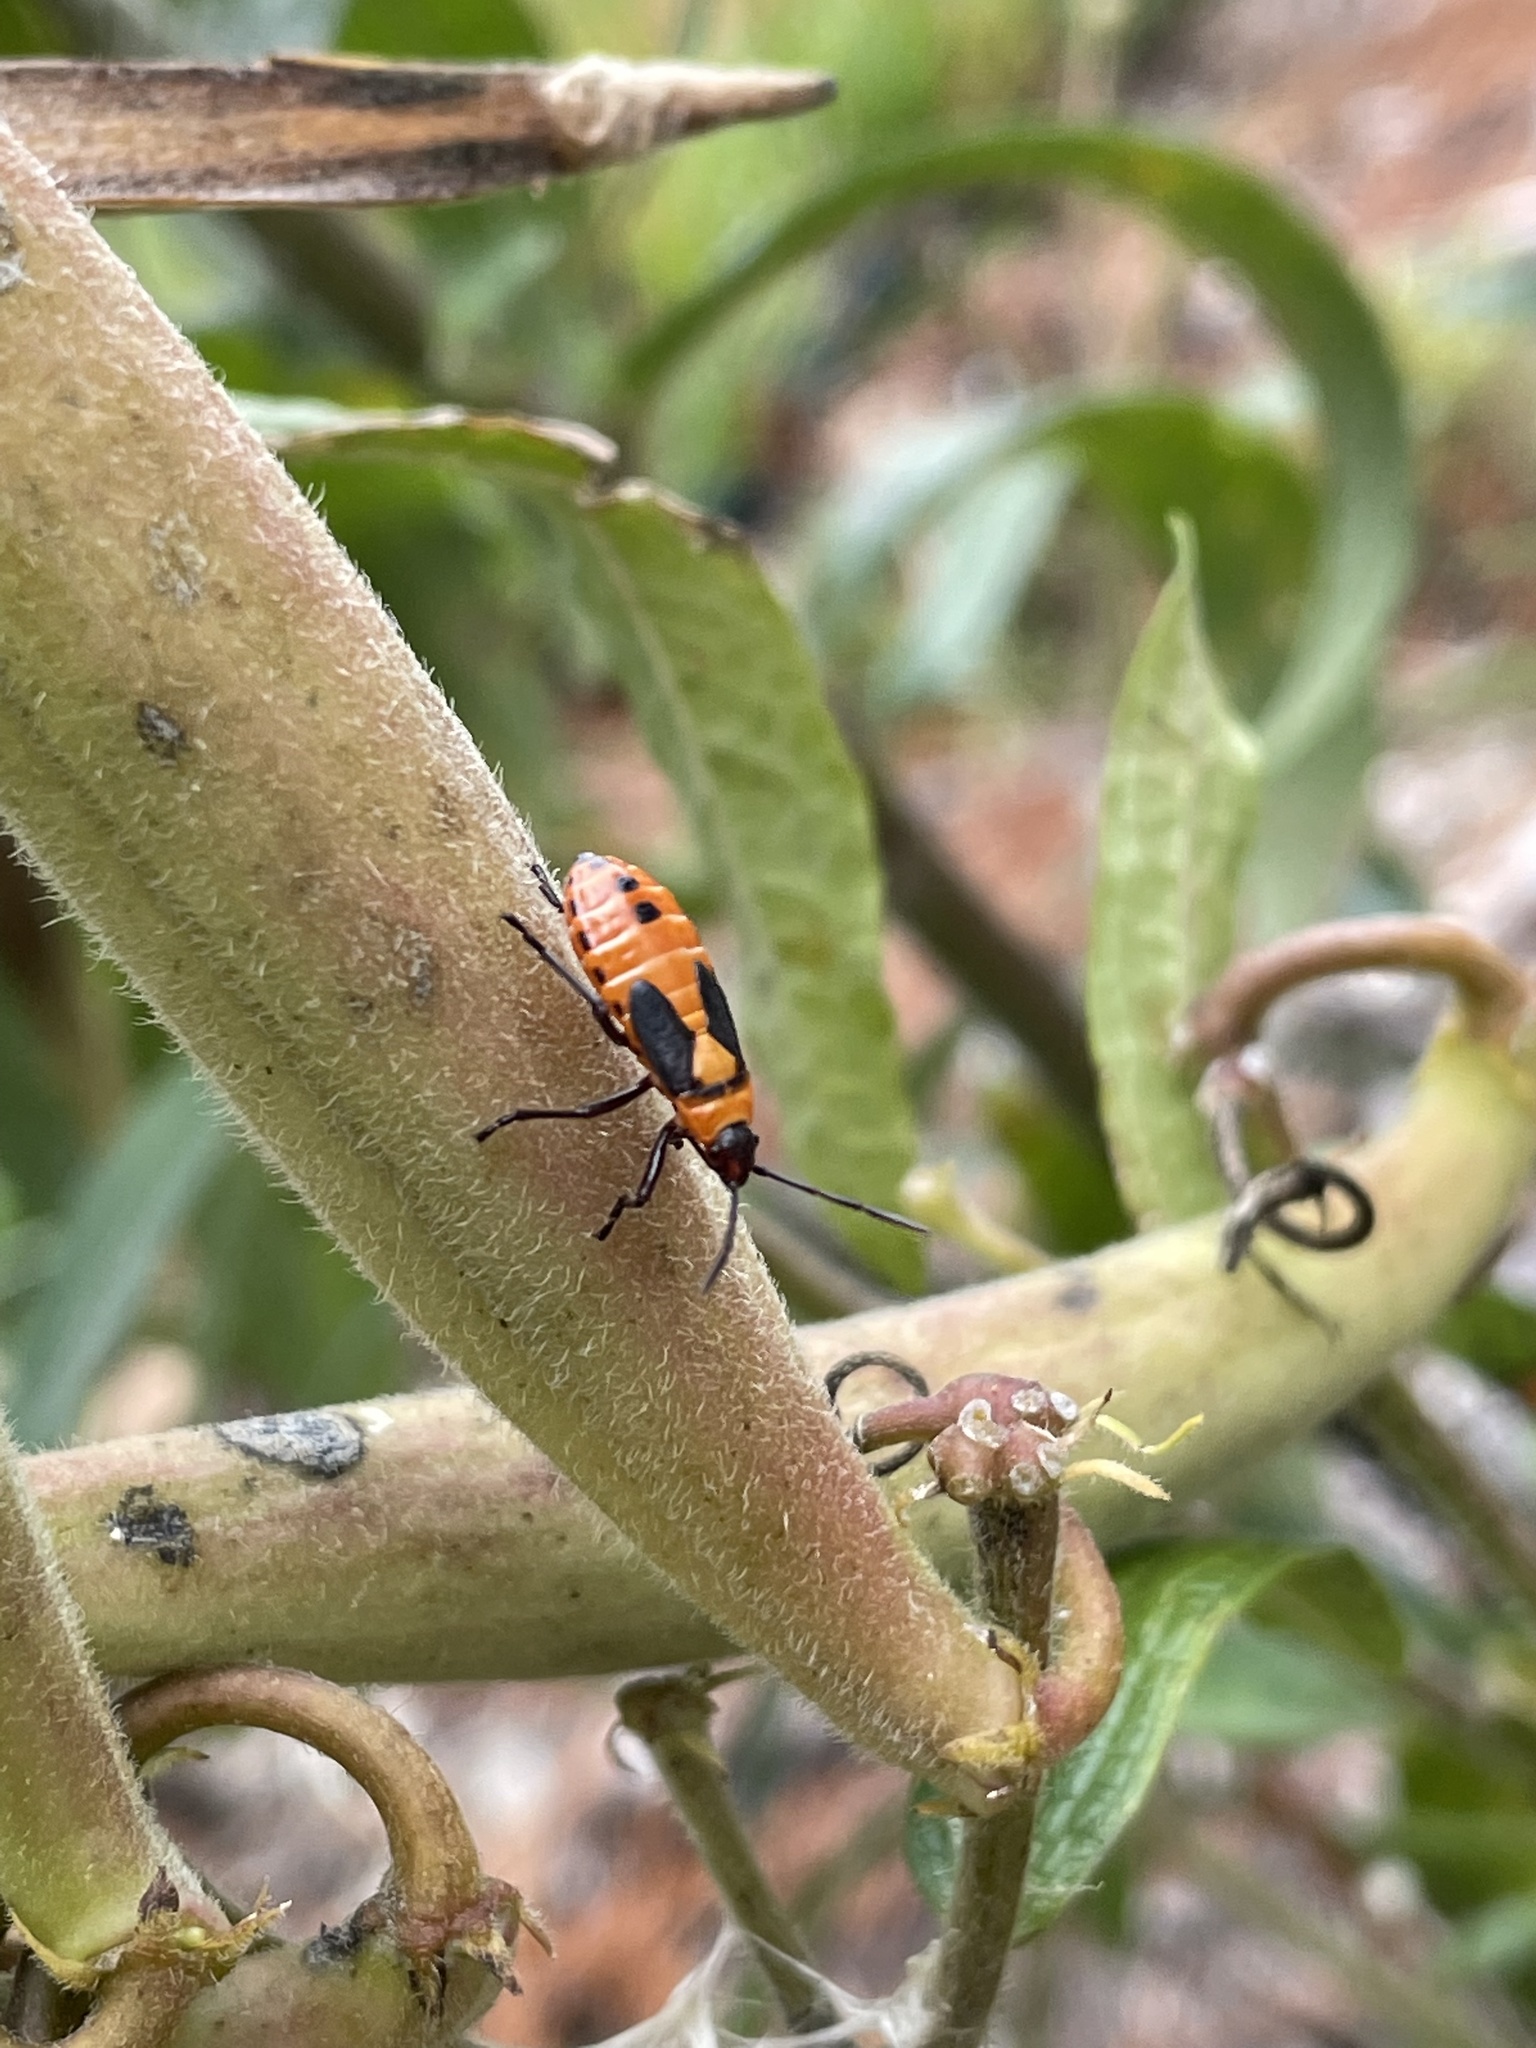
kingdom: Animalia
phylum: Arthropoda
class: Insecta
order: Hemiptera
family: Lygaeidae
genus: Oncopeltus
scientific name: Oncopeltus fasciatus
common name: Large milkweed bug
